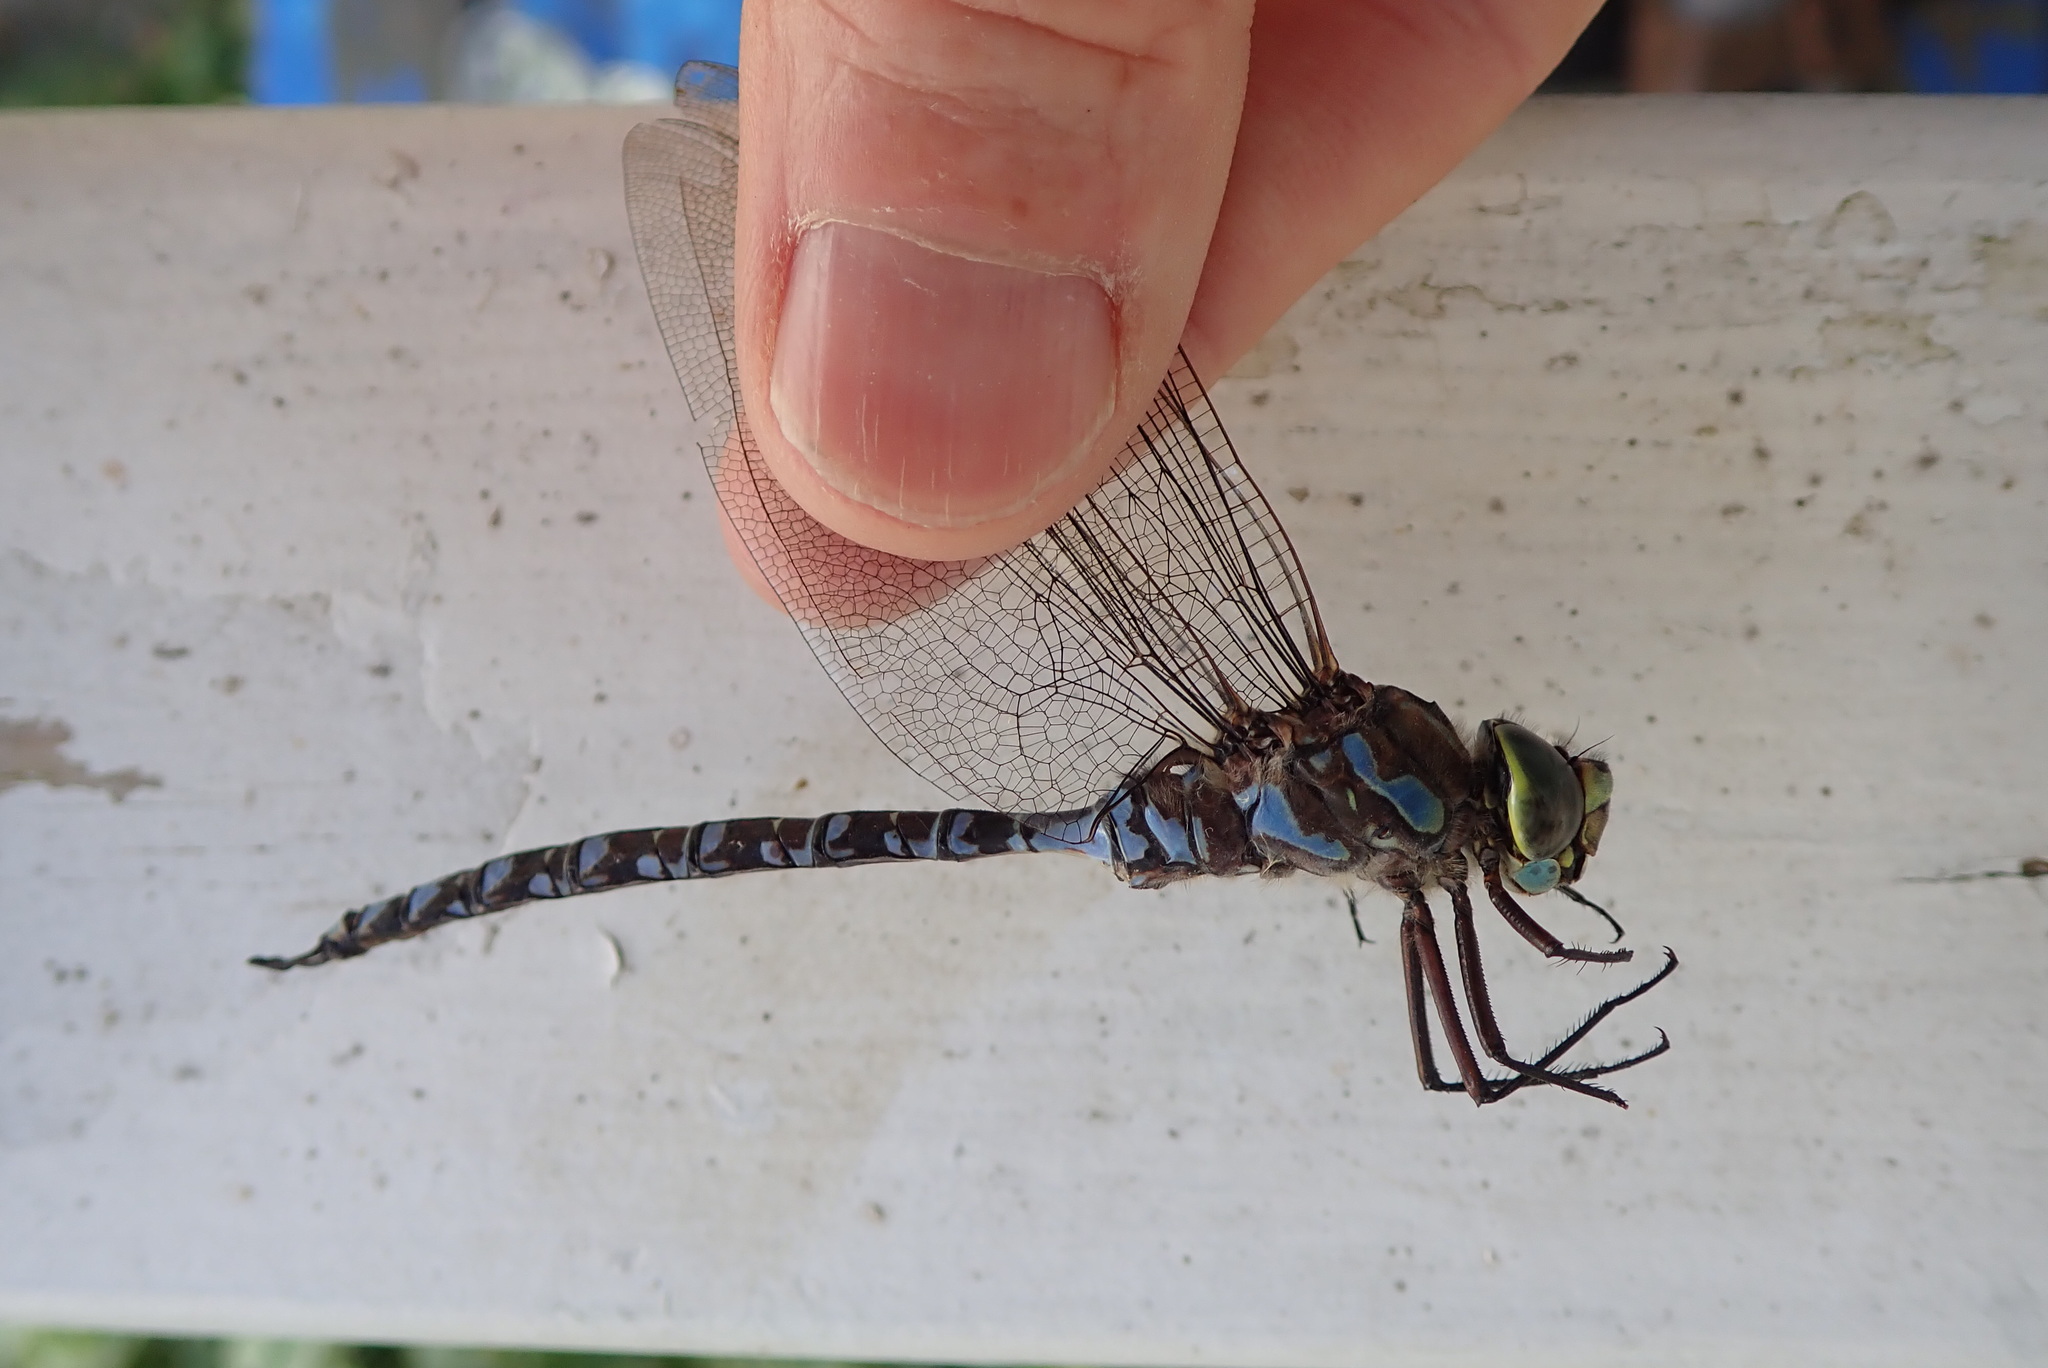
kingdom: Animalia
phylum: Arthropoda
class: Insecta
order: Odonata
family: Aeshnidae
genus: Aeshna
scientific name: Aeshna eremita
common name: Lake darner
